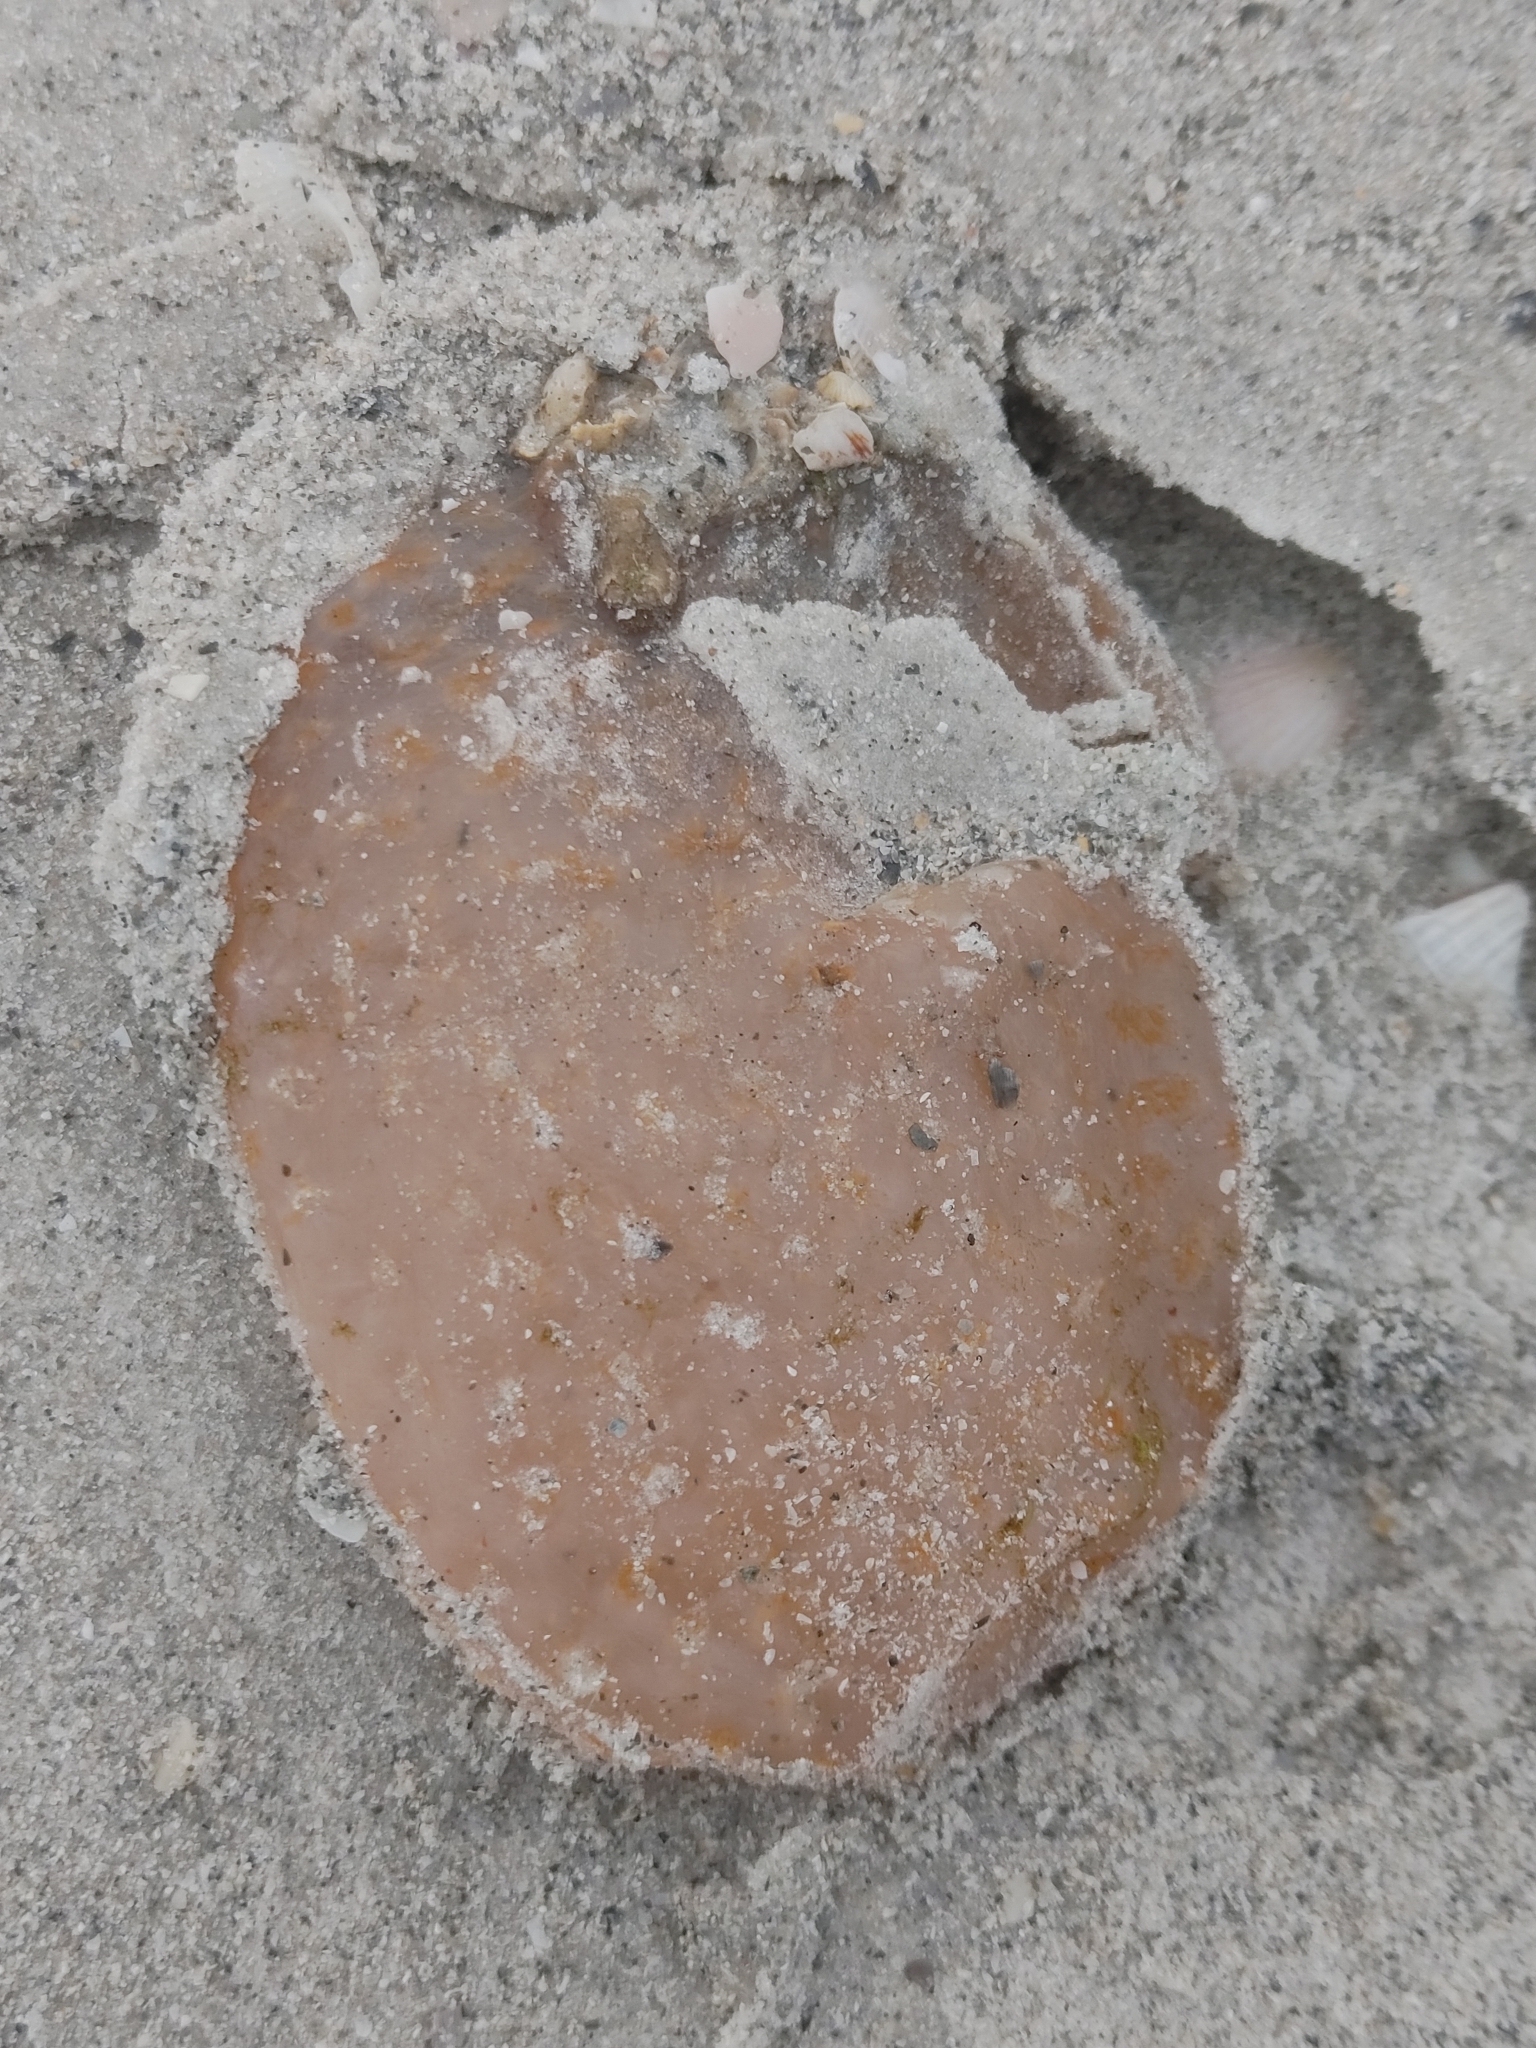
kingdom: Animalia
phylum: Chordata
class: Ascidiacea
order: Aplousobranchia
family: Polyclinidae
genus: Aplidium
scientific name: Aplidium stellatum
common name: Atlantic sea pork
